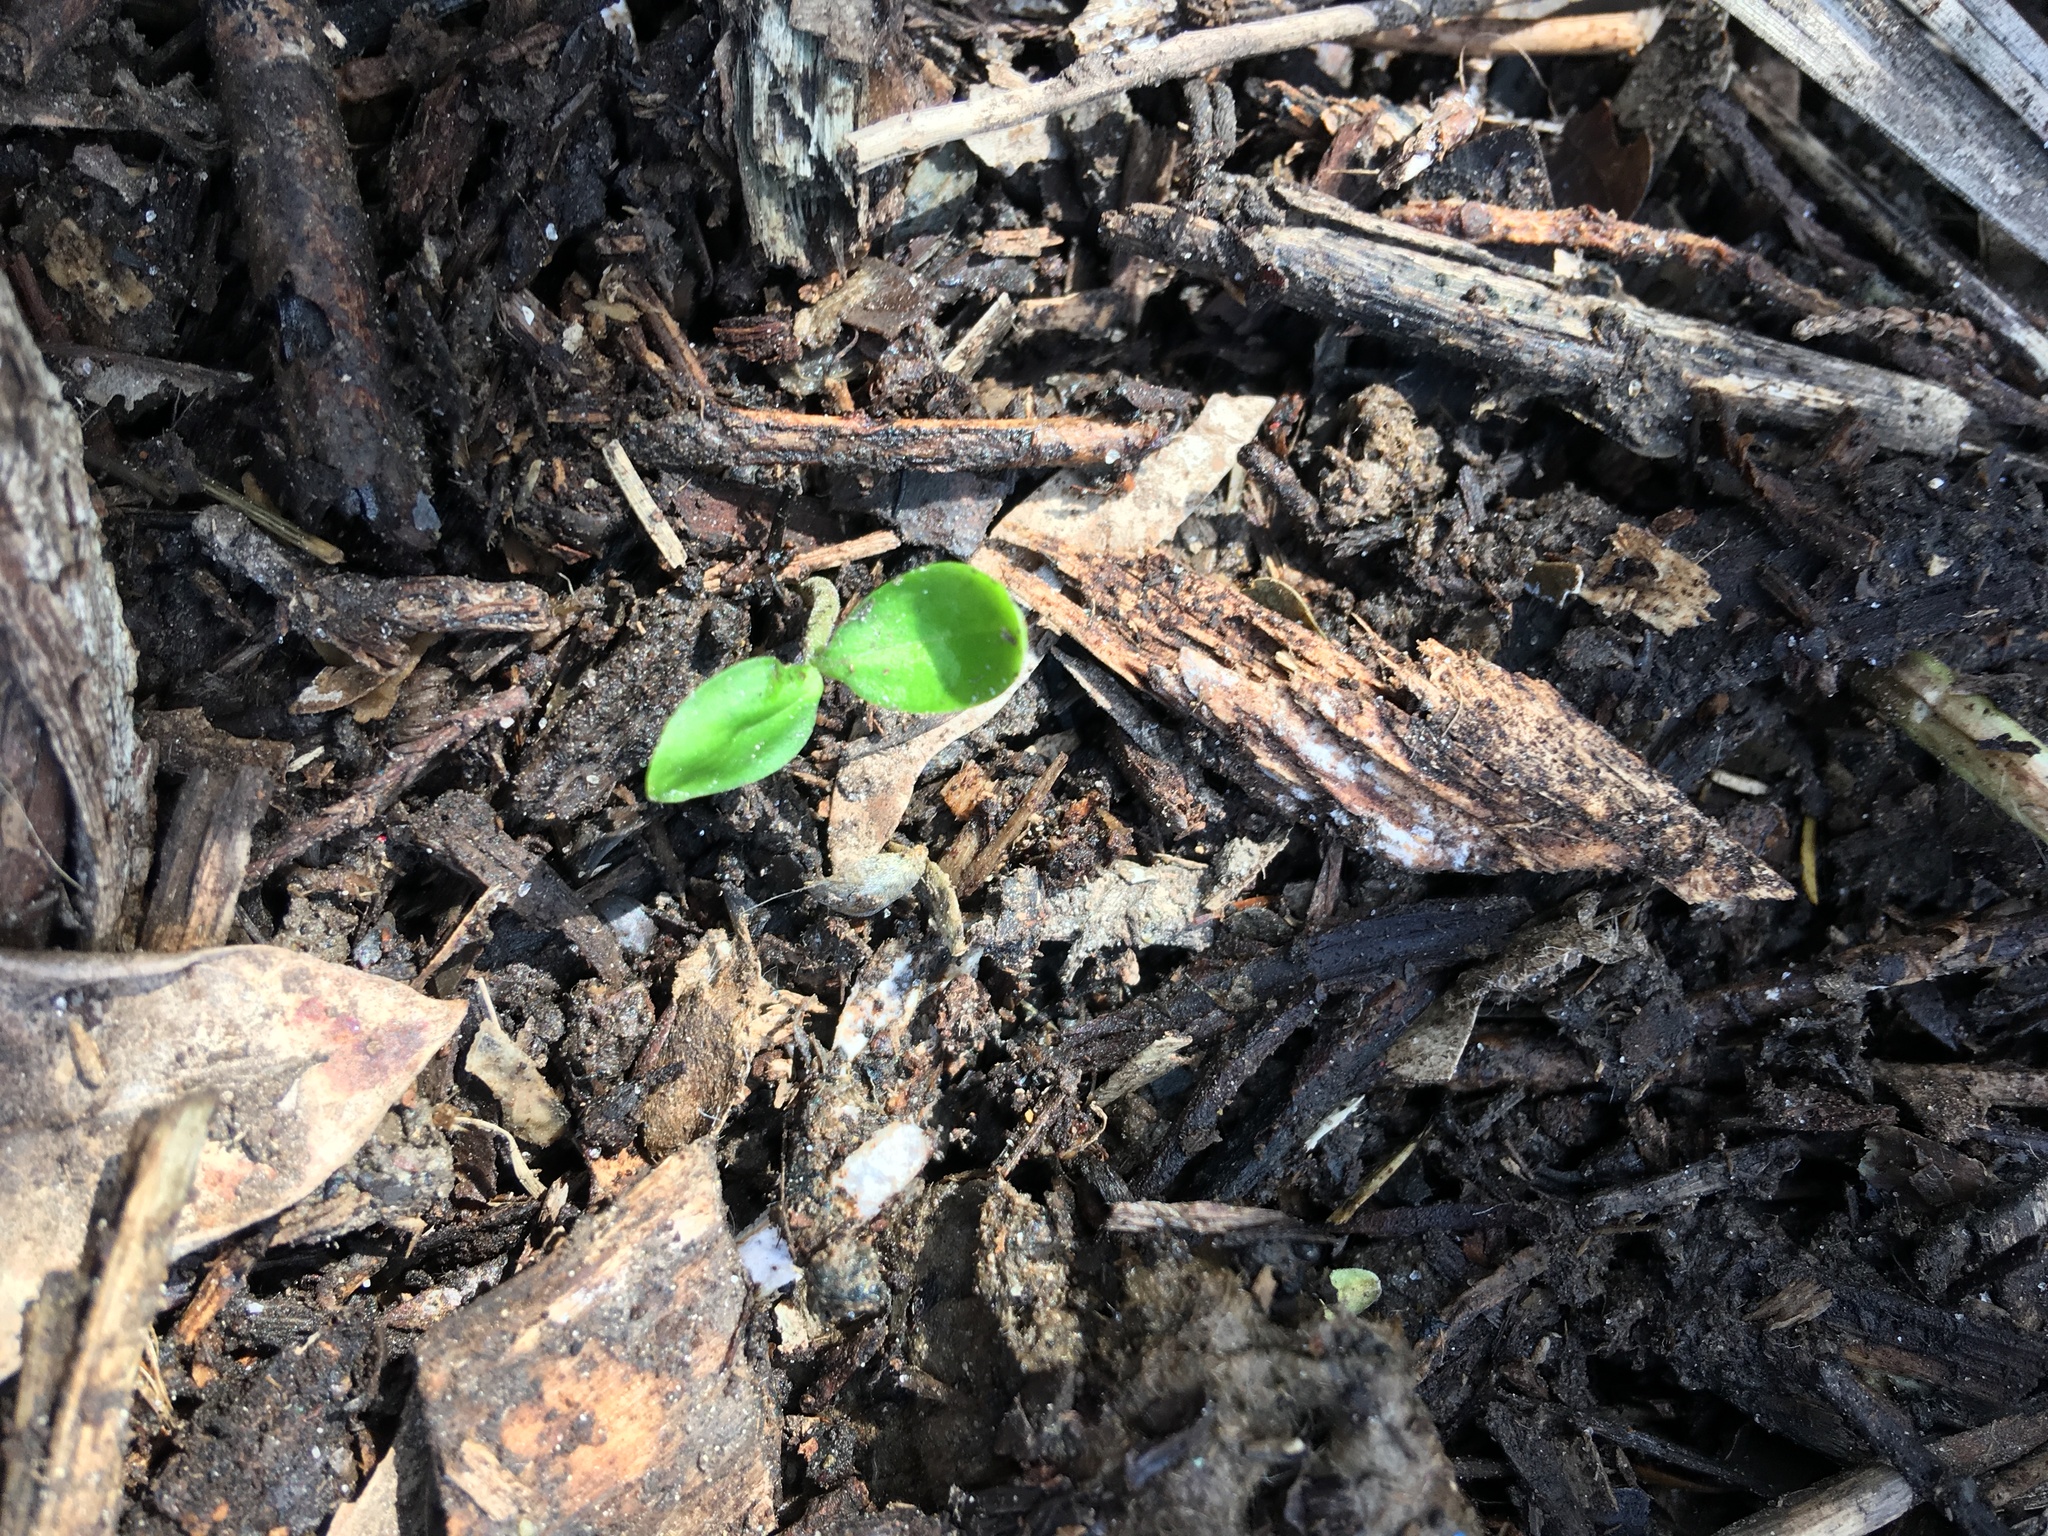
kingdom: Plantae
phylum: Tracheophyta
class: Magnoliopsida
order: Lamiales
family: Oleaceae
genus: Ligustrum
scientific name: Ligustrum sinense
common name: Chinese privet
